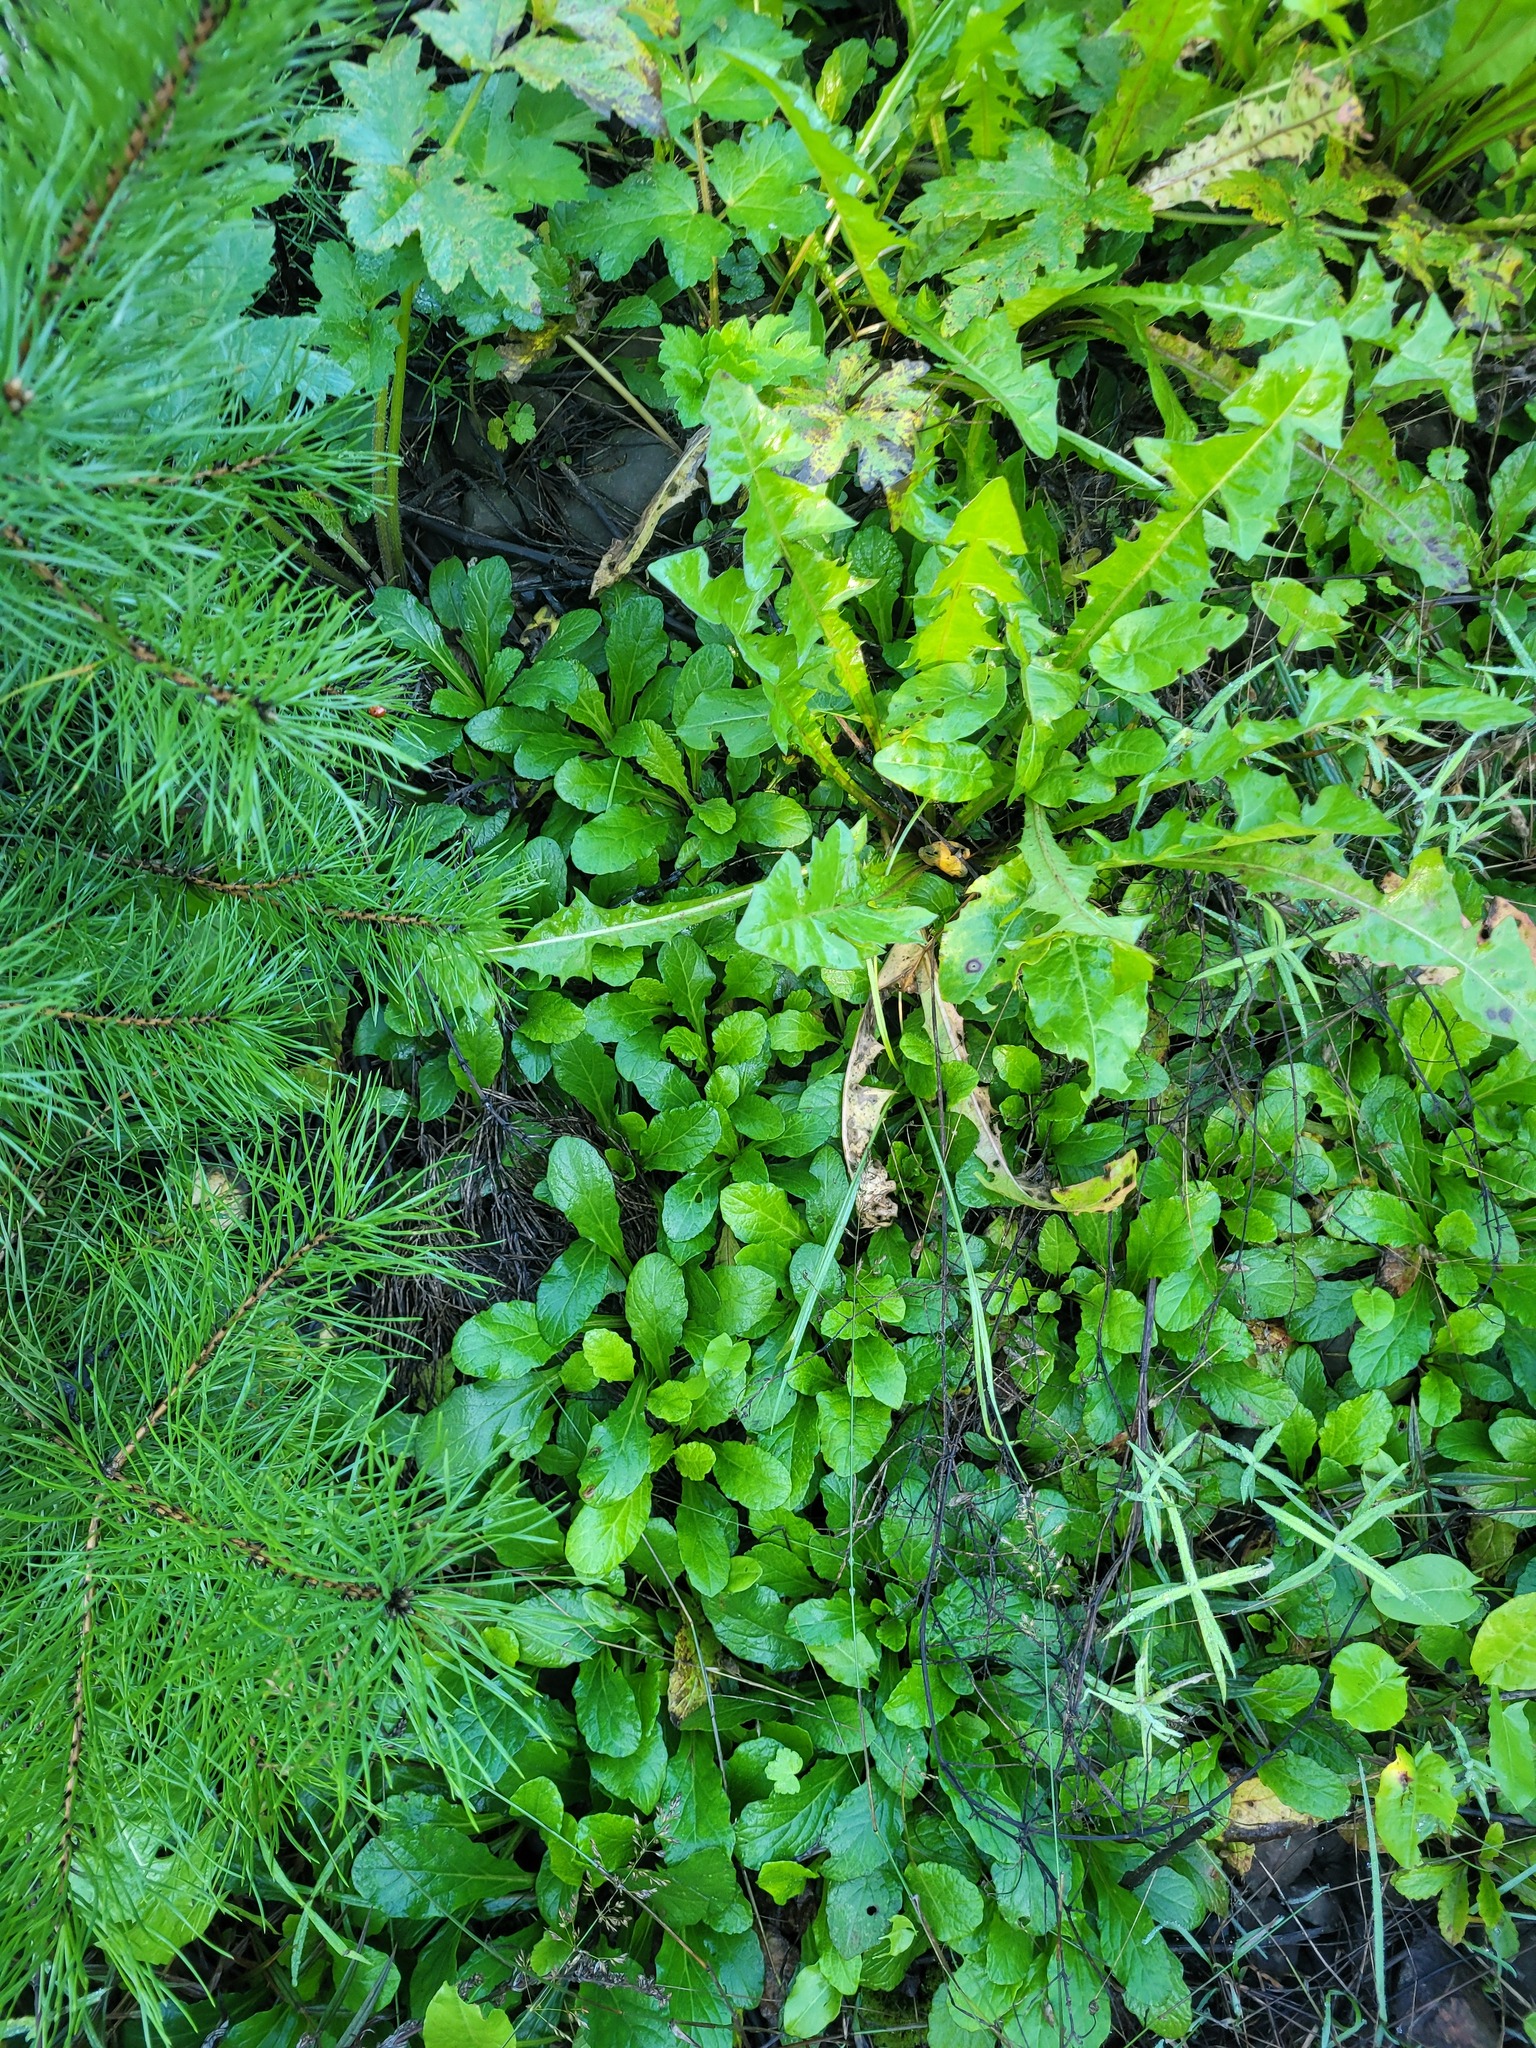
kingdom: Plantae
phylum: Tracheophyta
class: Magnoliopsida
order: Lamiales
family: Lamiaceae
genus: Ajuga
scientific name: Ajuga reptans
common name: Bugle
